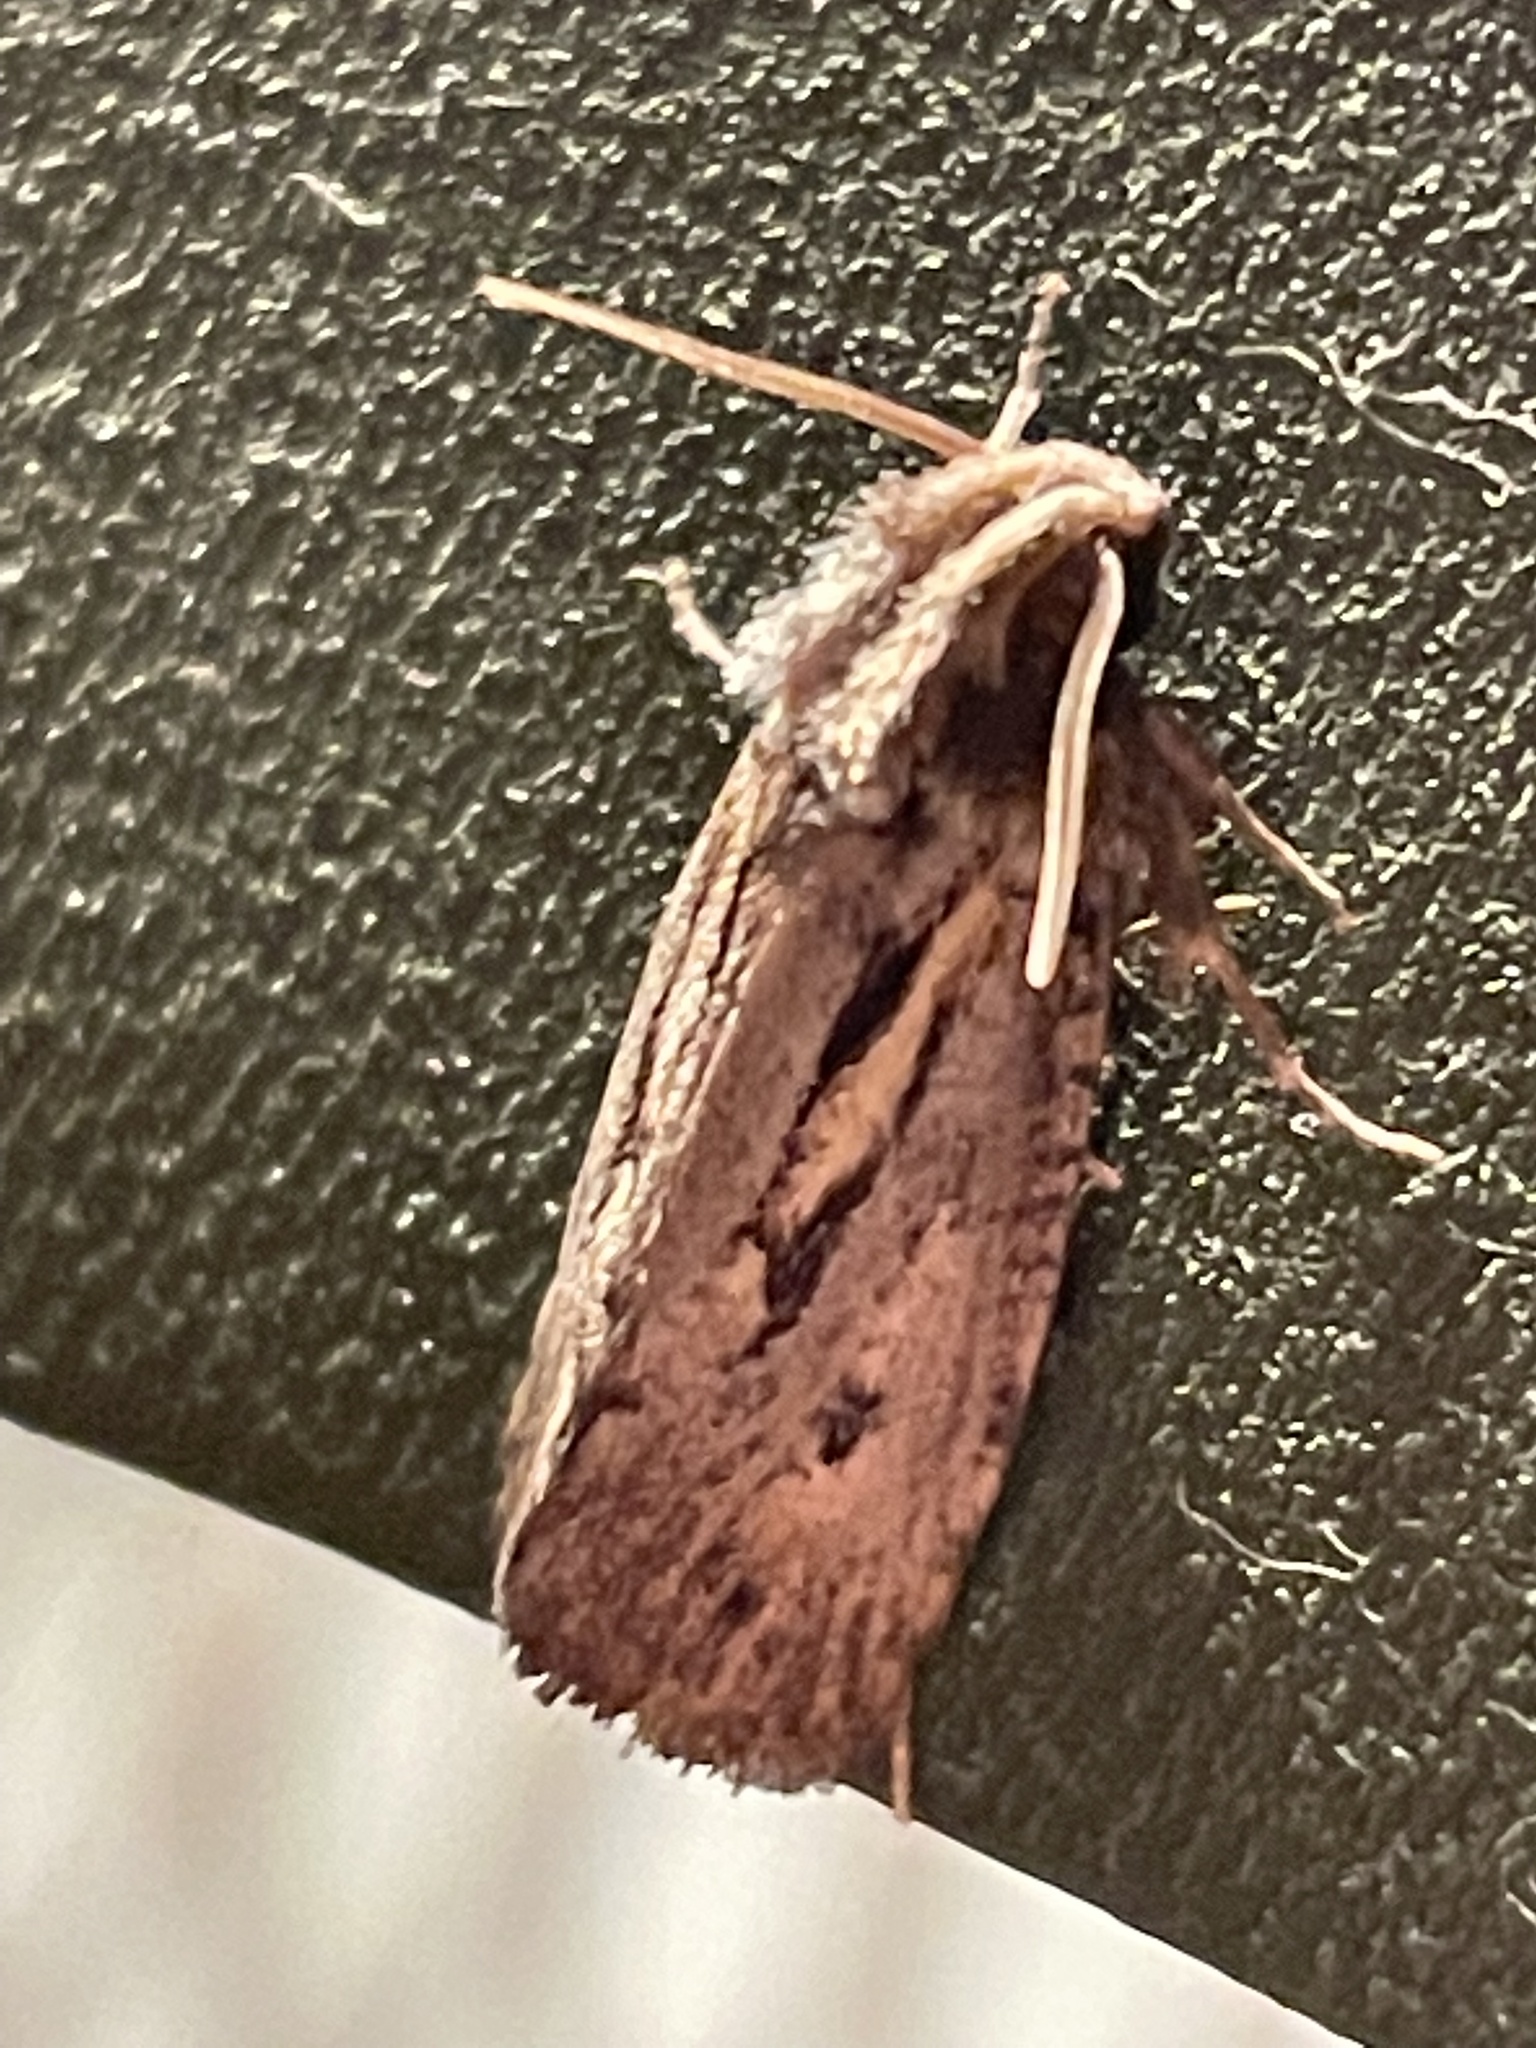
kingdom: Animalia
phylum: Arthropoda
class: Insecta
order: Lepidoptera
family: Tineidae
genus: Acrolophus
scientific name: Acrolophus popeanella
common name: Clemens' grass tubeworm moth
